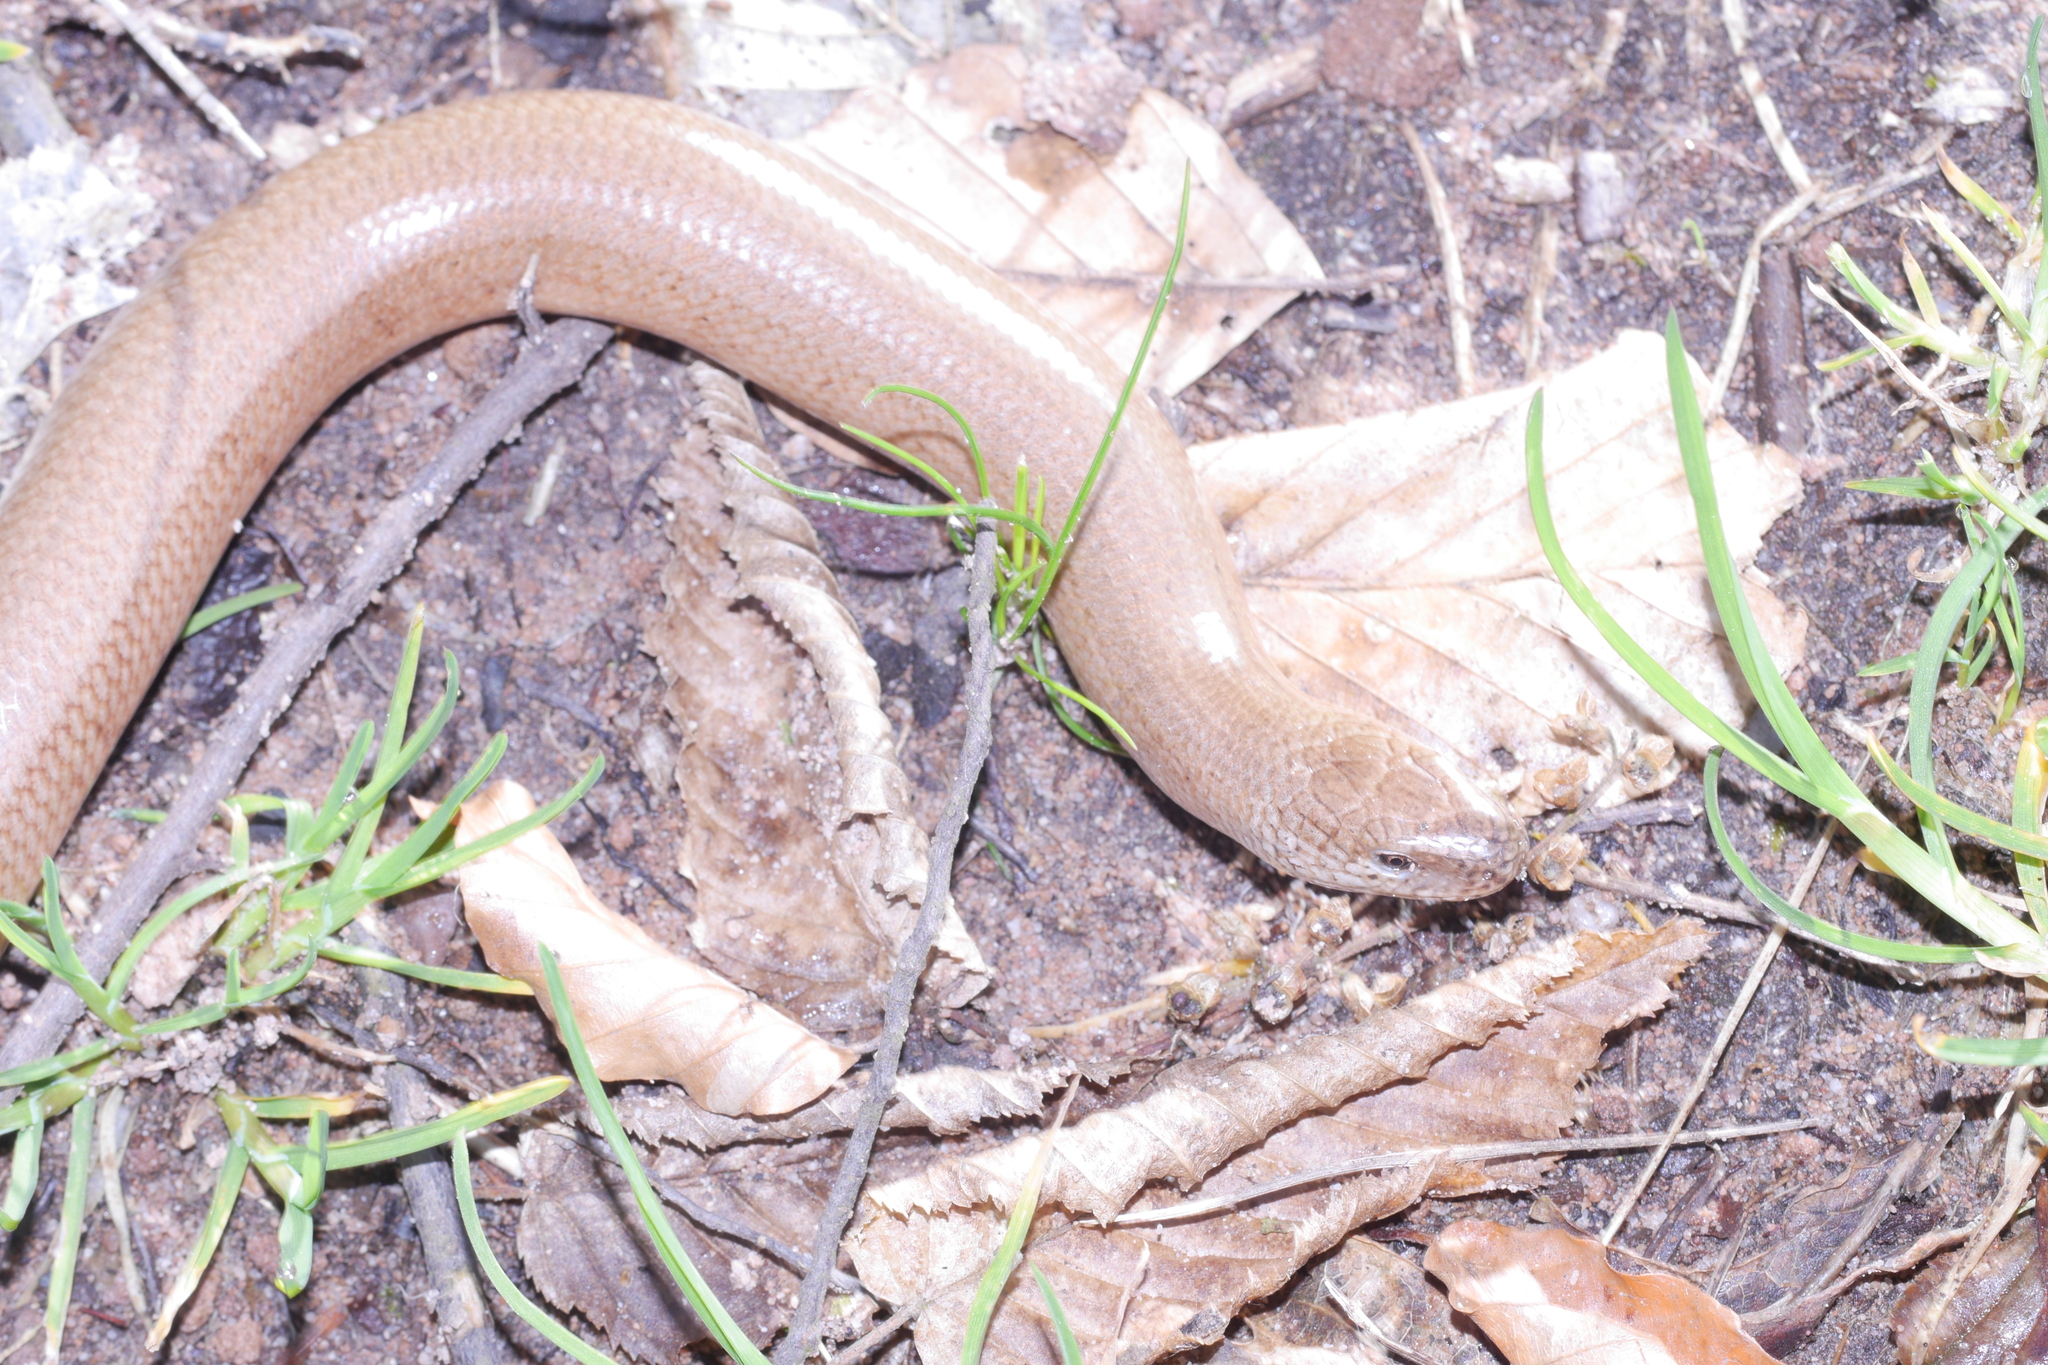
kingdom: Animalia
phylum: Chordata
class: Squamata
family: Anguidae
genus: Anguis
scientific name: Anguis fragilis
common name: Slow worm
